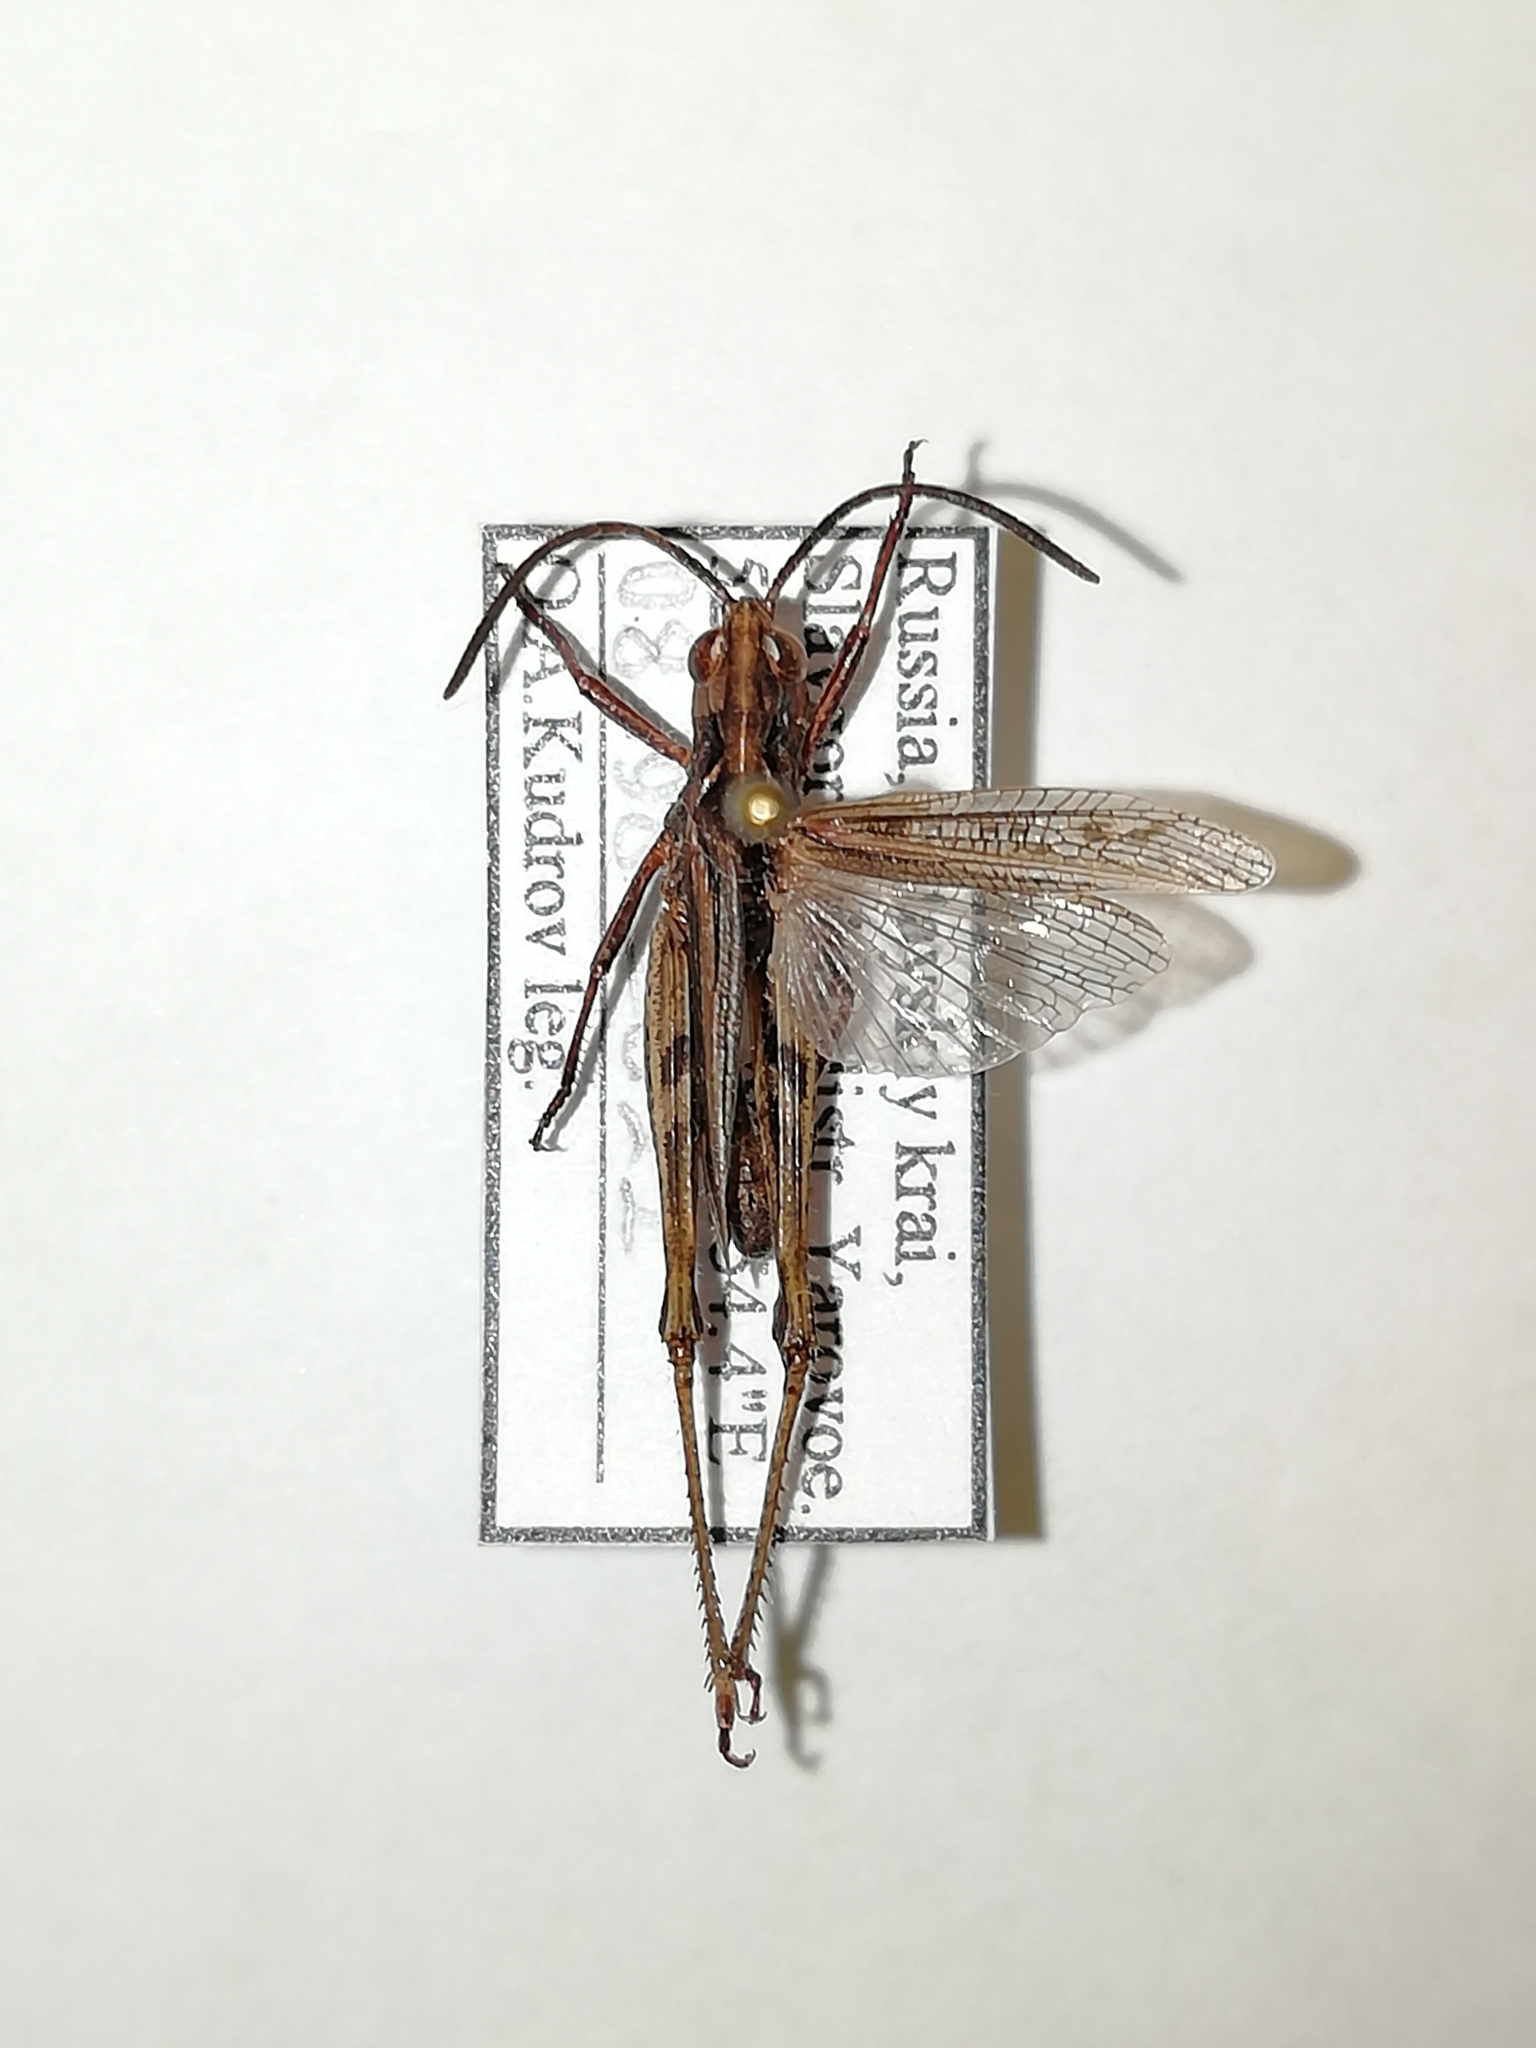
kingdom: Animalia
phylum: Arthropoda
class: Insecta
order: Orthoptera
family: Acrididae
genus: Chorthippus
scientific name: Chorthippus dubius
